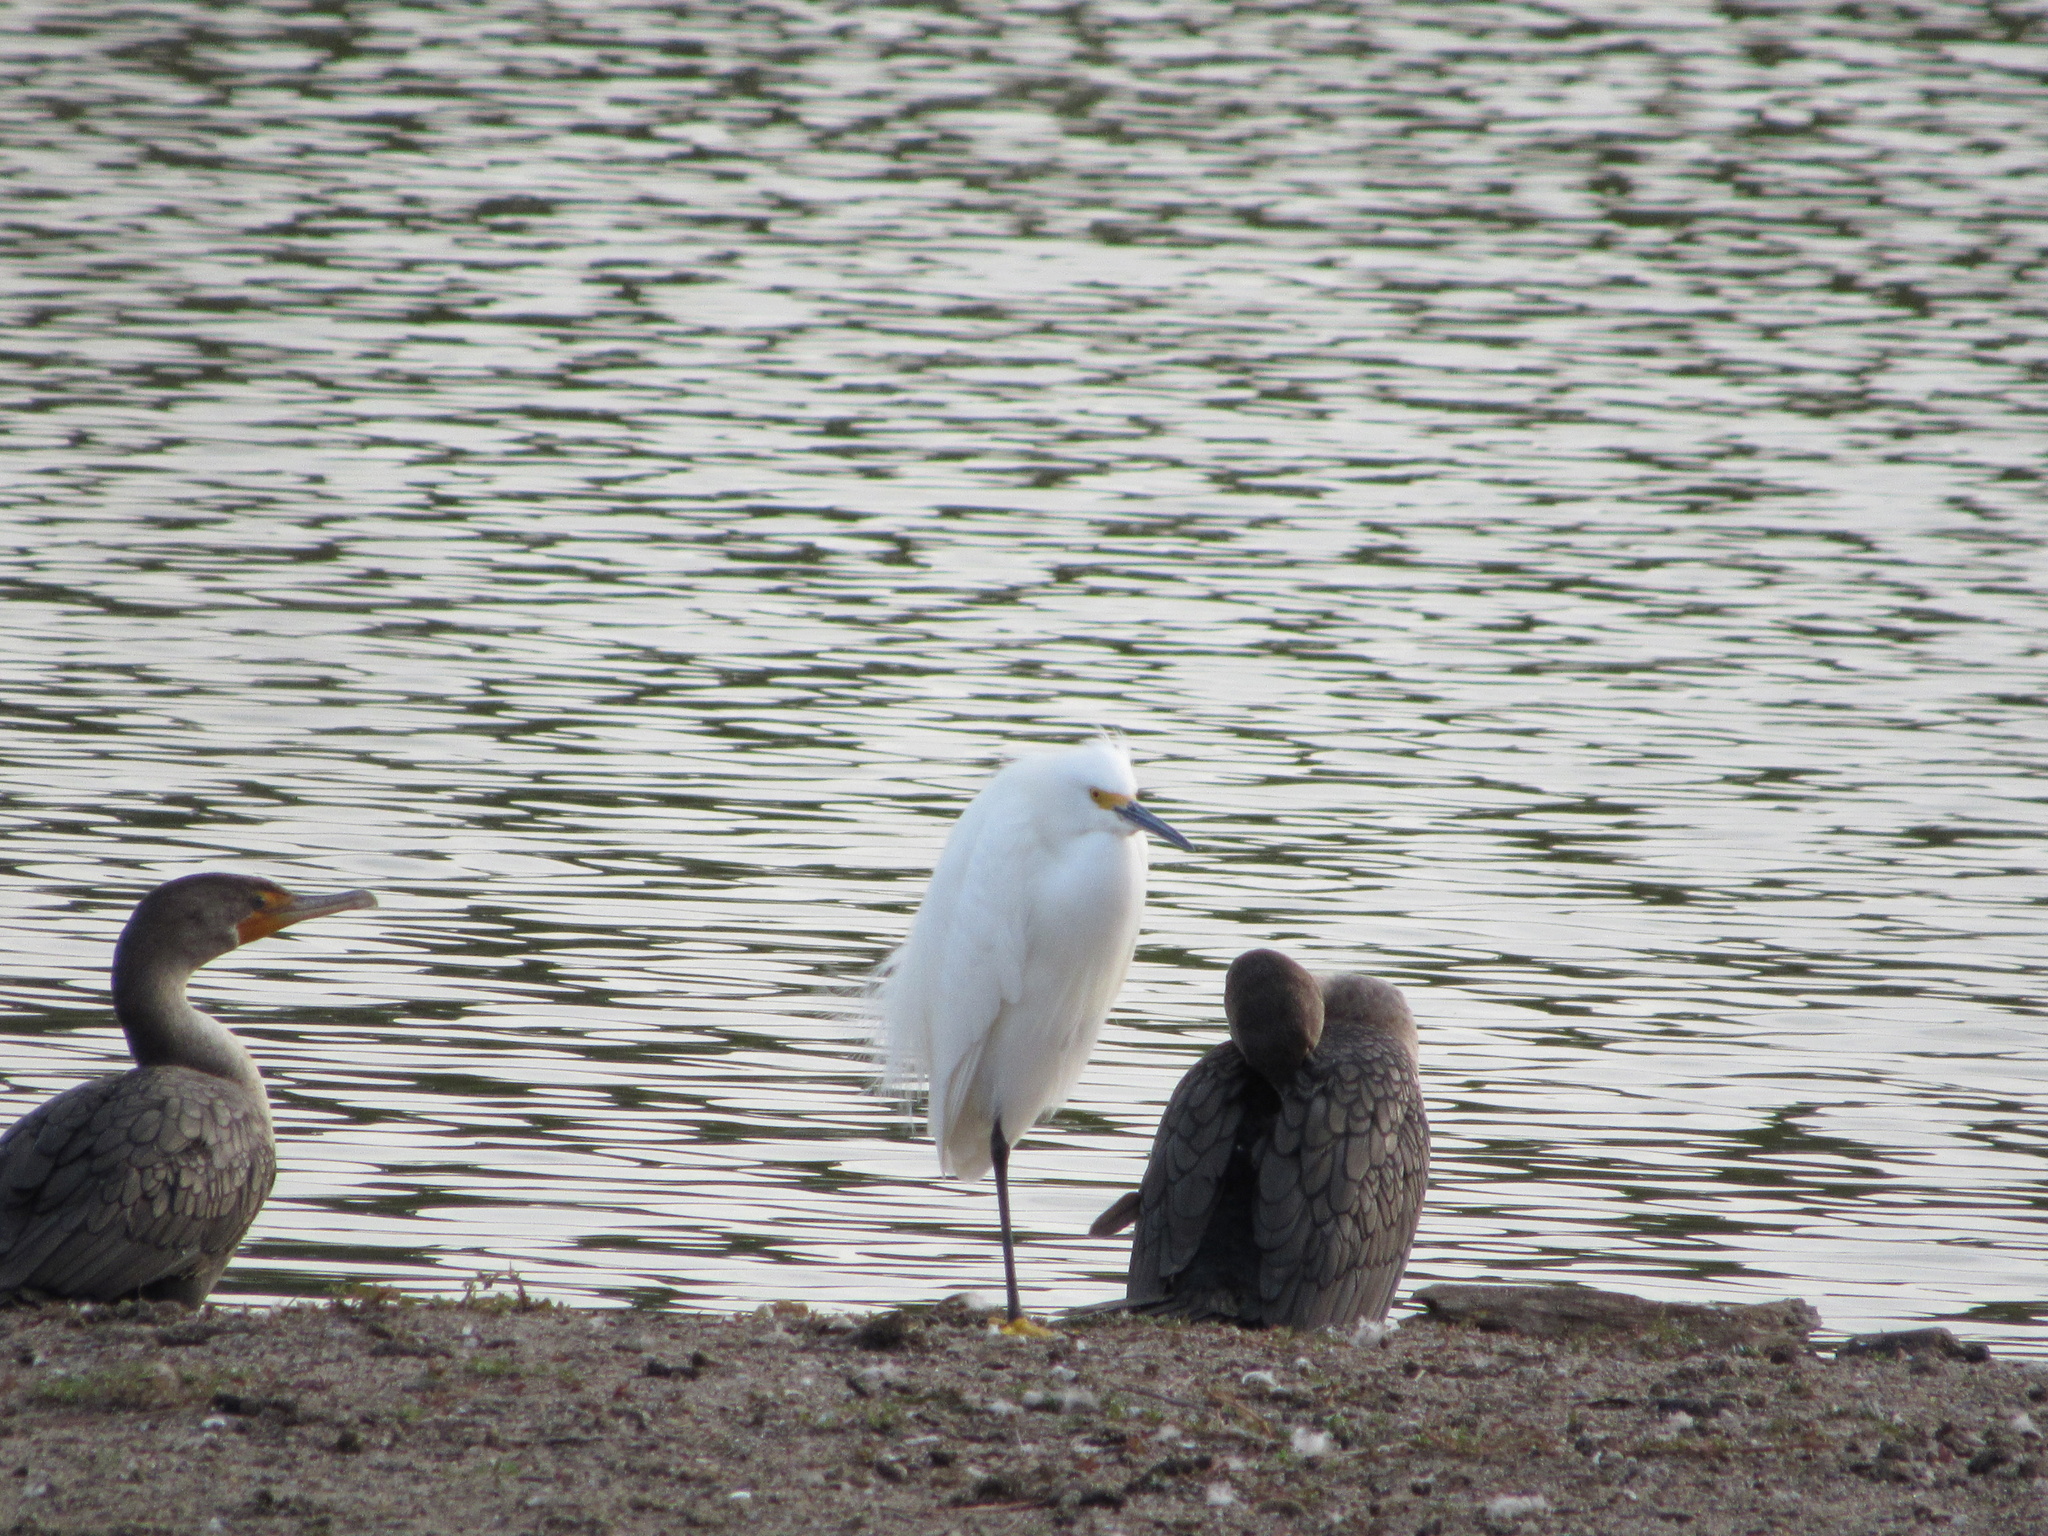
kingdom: Animalia
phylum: Chordata
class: Aves
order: Pelecaniformes
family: Ardeidae
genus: Egretta
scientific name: Egretta thula
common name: Snowy egret
